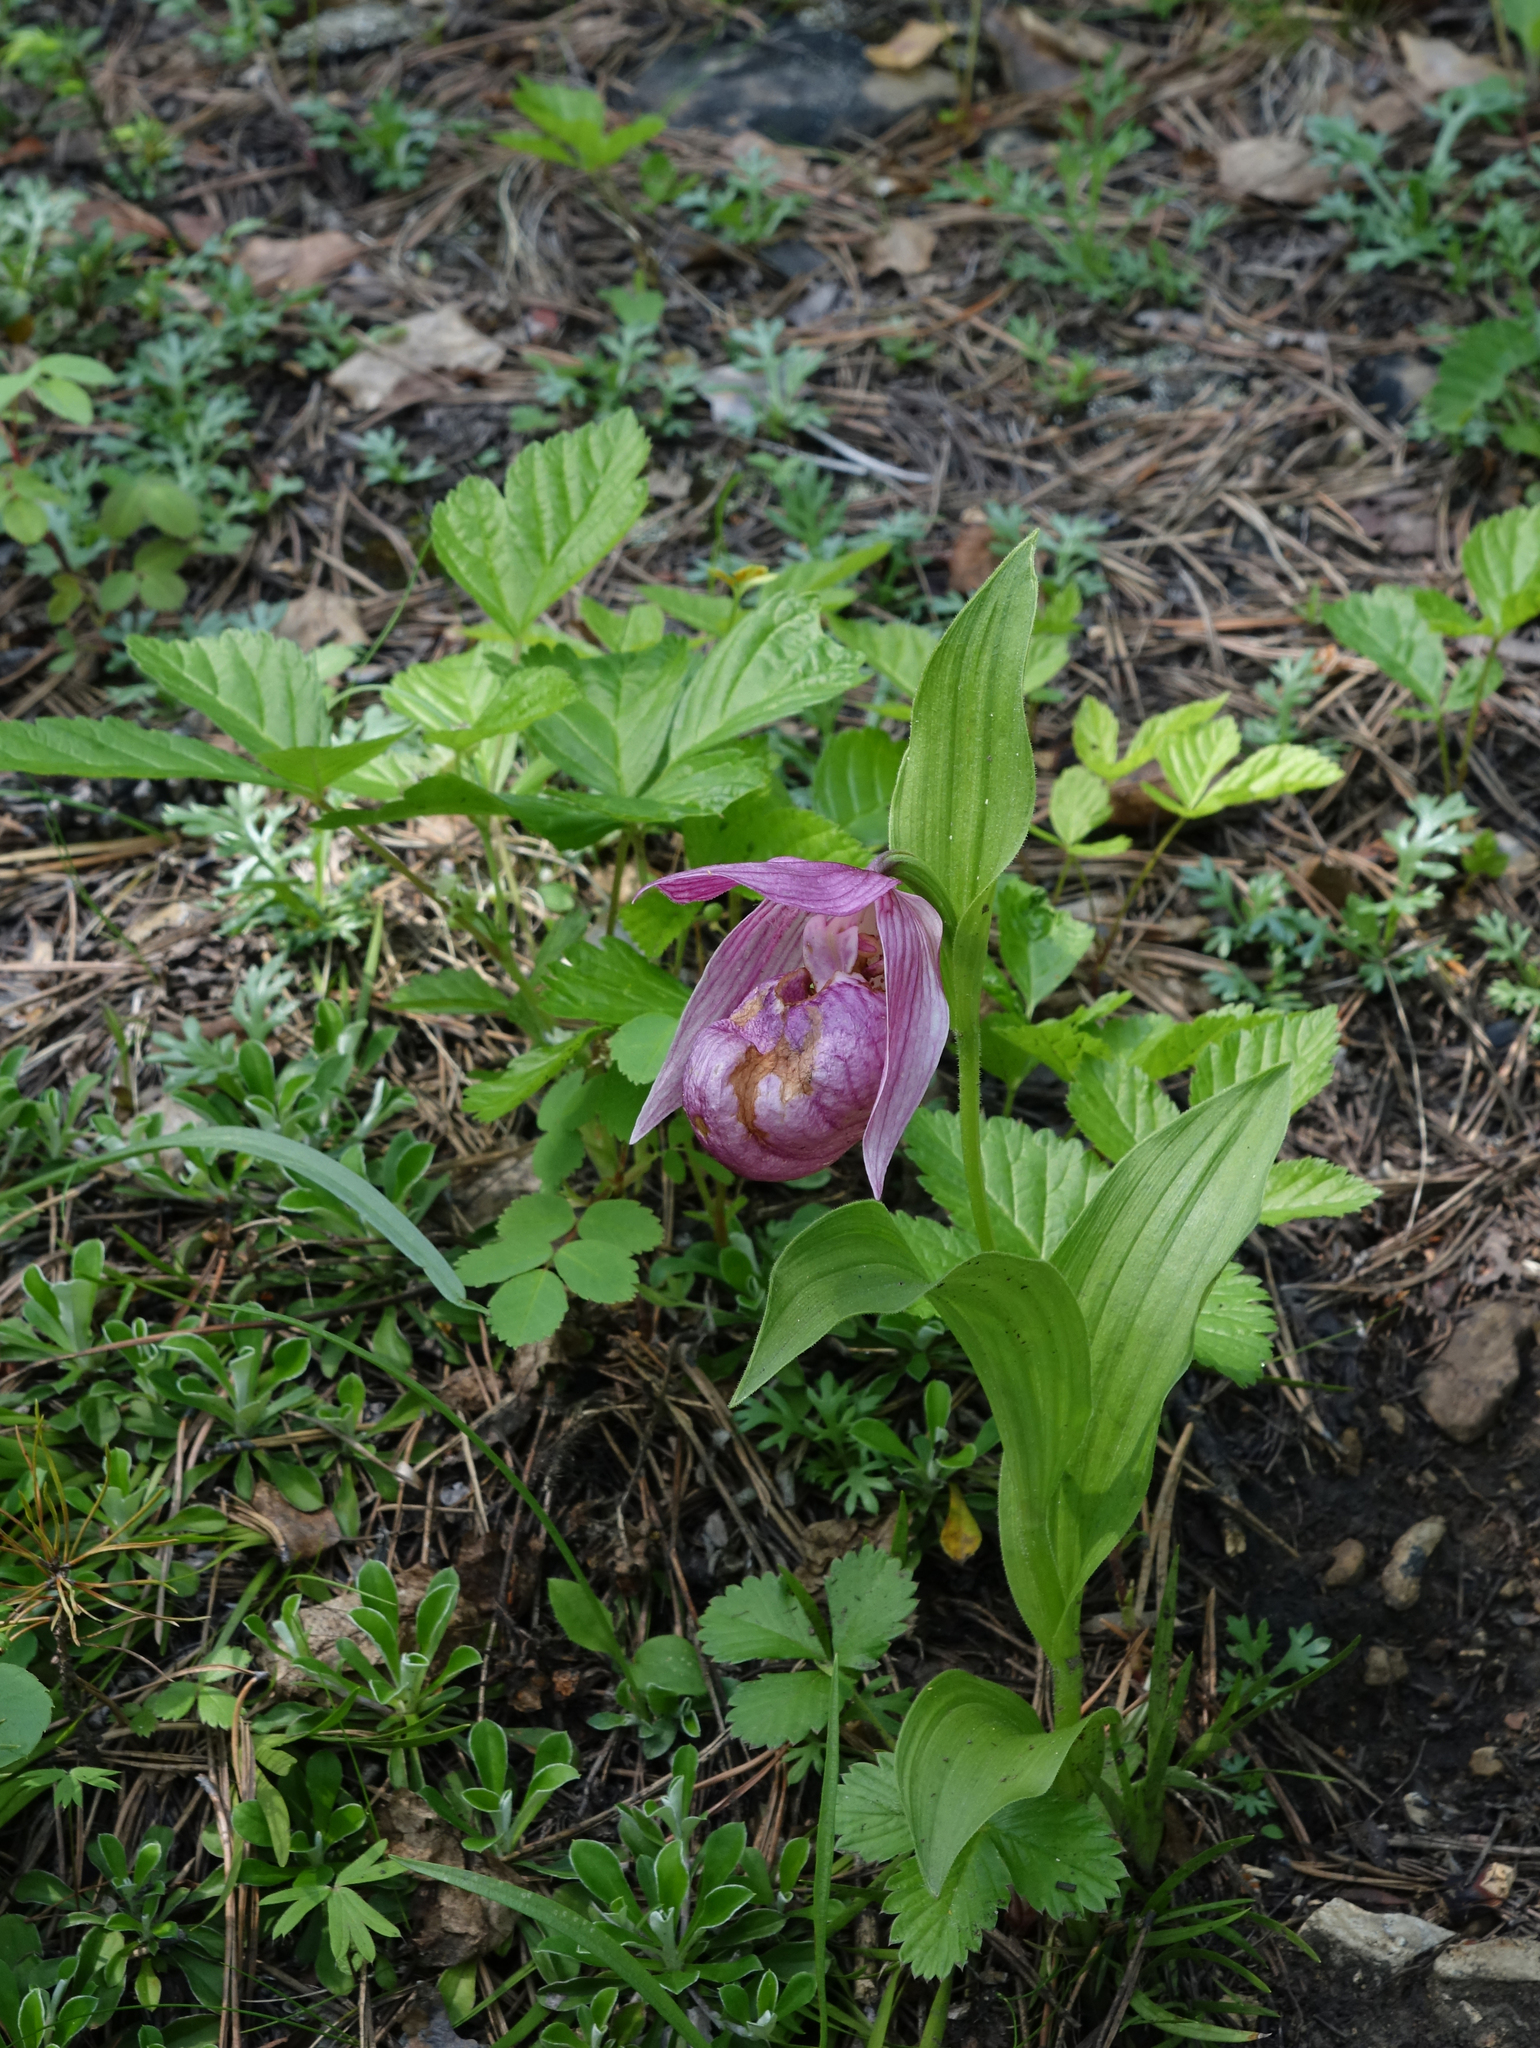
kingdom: Plantae
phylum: Tracheophyta
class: Liliopsida
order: Asparagales
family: Orchidaceae
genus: Cypripedium
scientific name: Cypripedium macranthos
